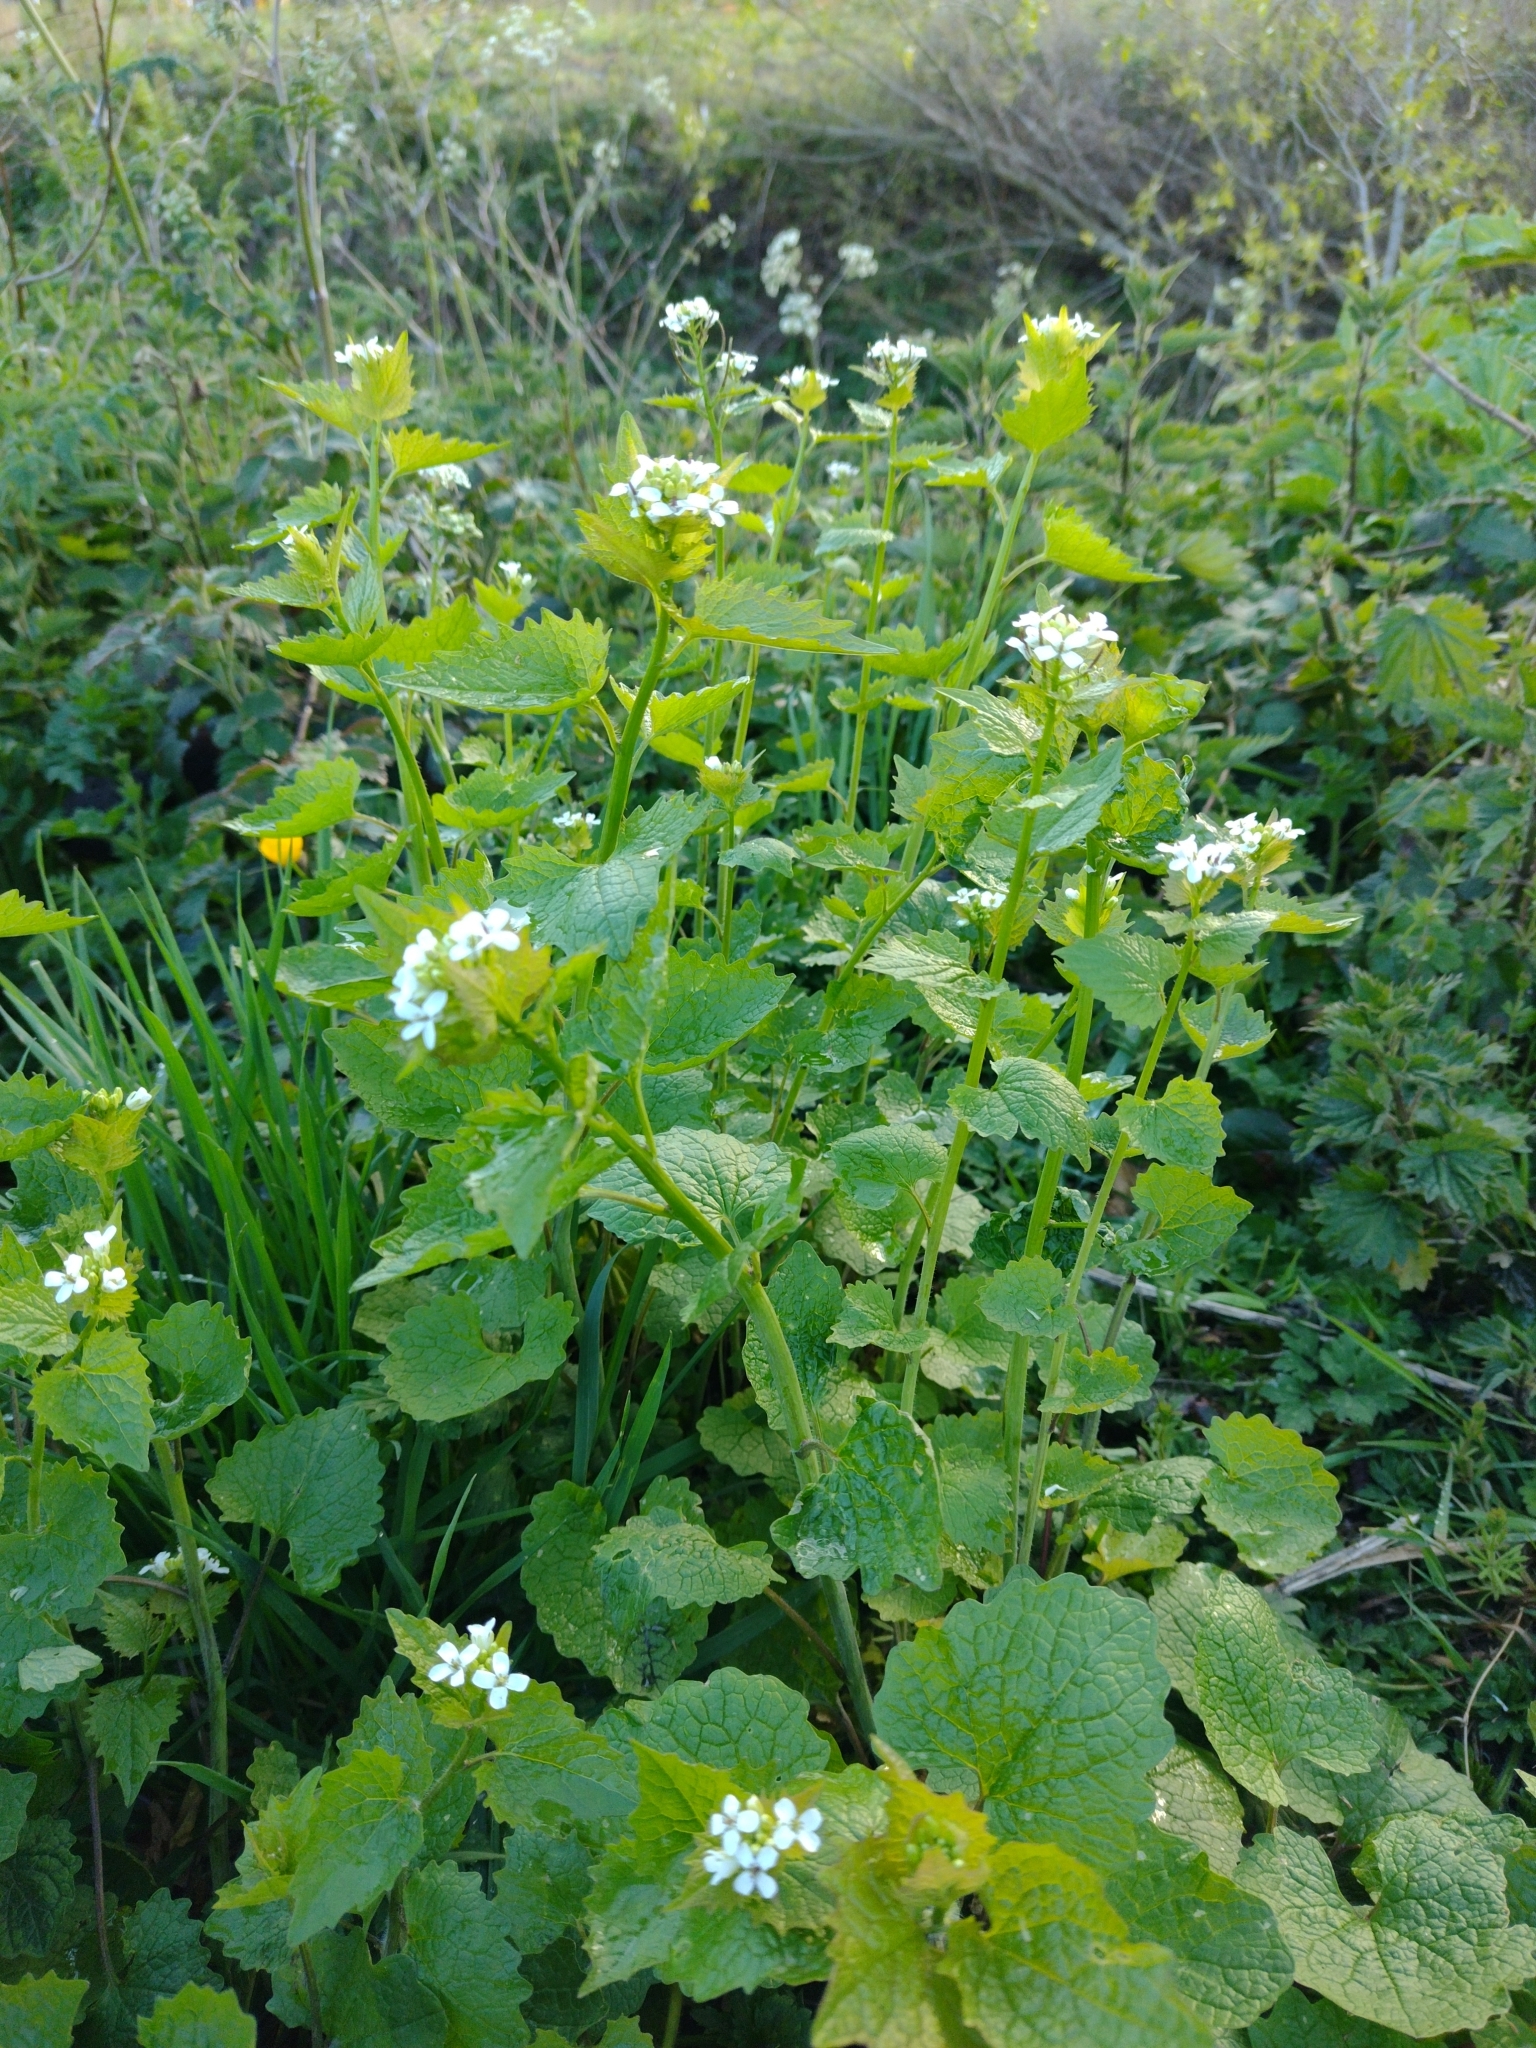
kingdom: Plantae
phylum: Tracheophyta
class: Magnoliopsida
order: Brassicales
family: Brassicaceae
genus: Alliaria
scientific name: Alliaria petiolata
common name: Garlic mustard
